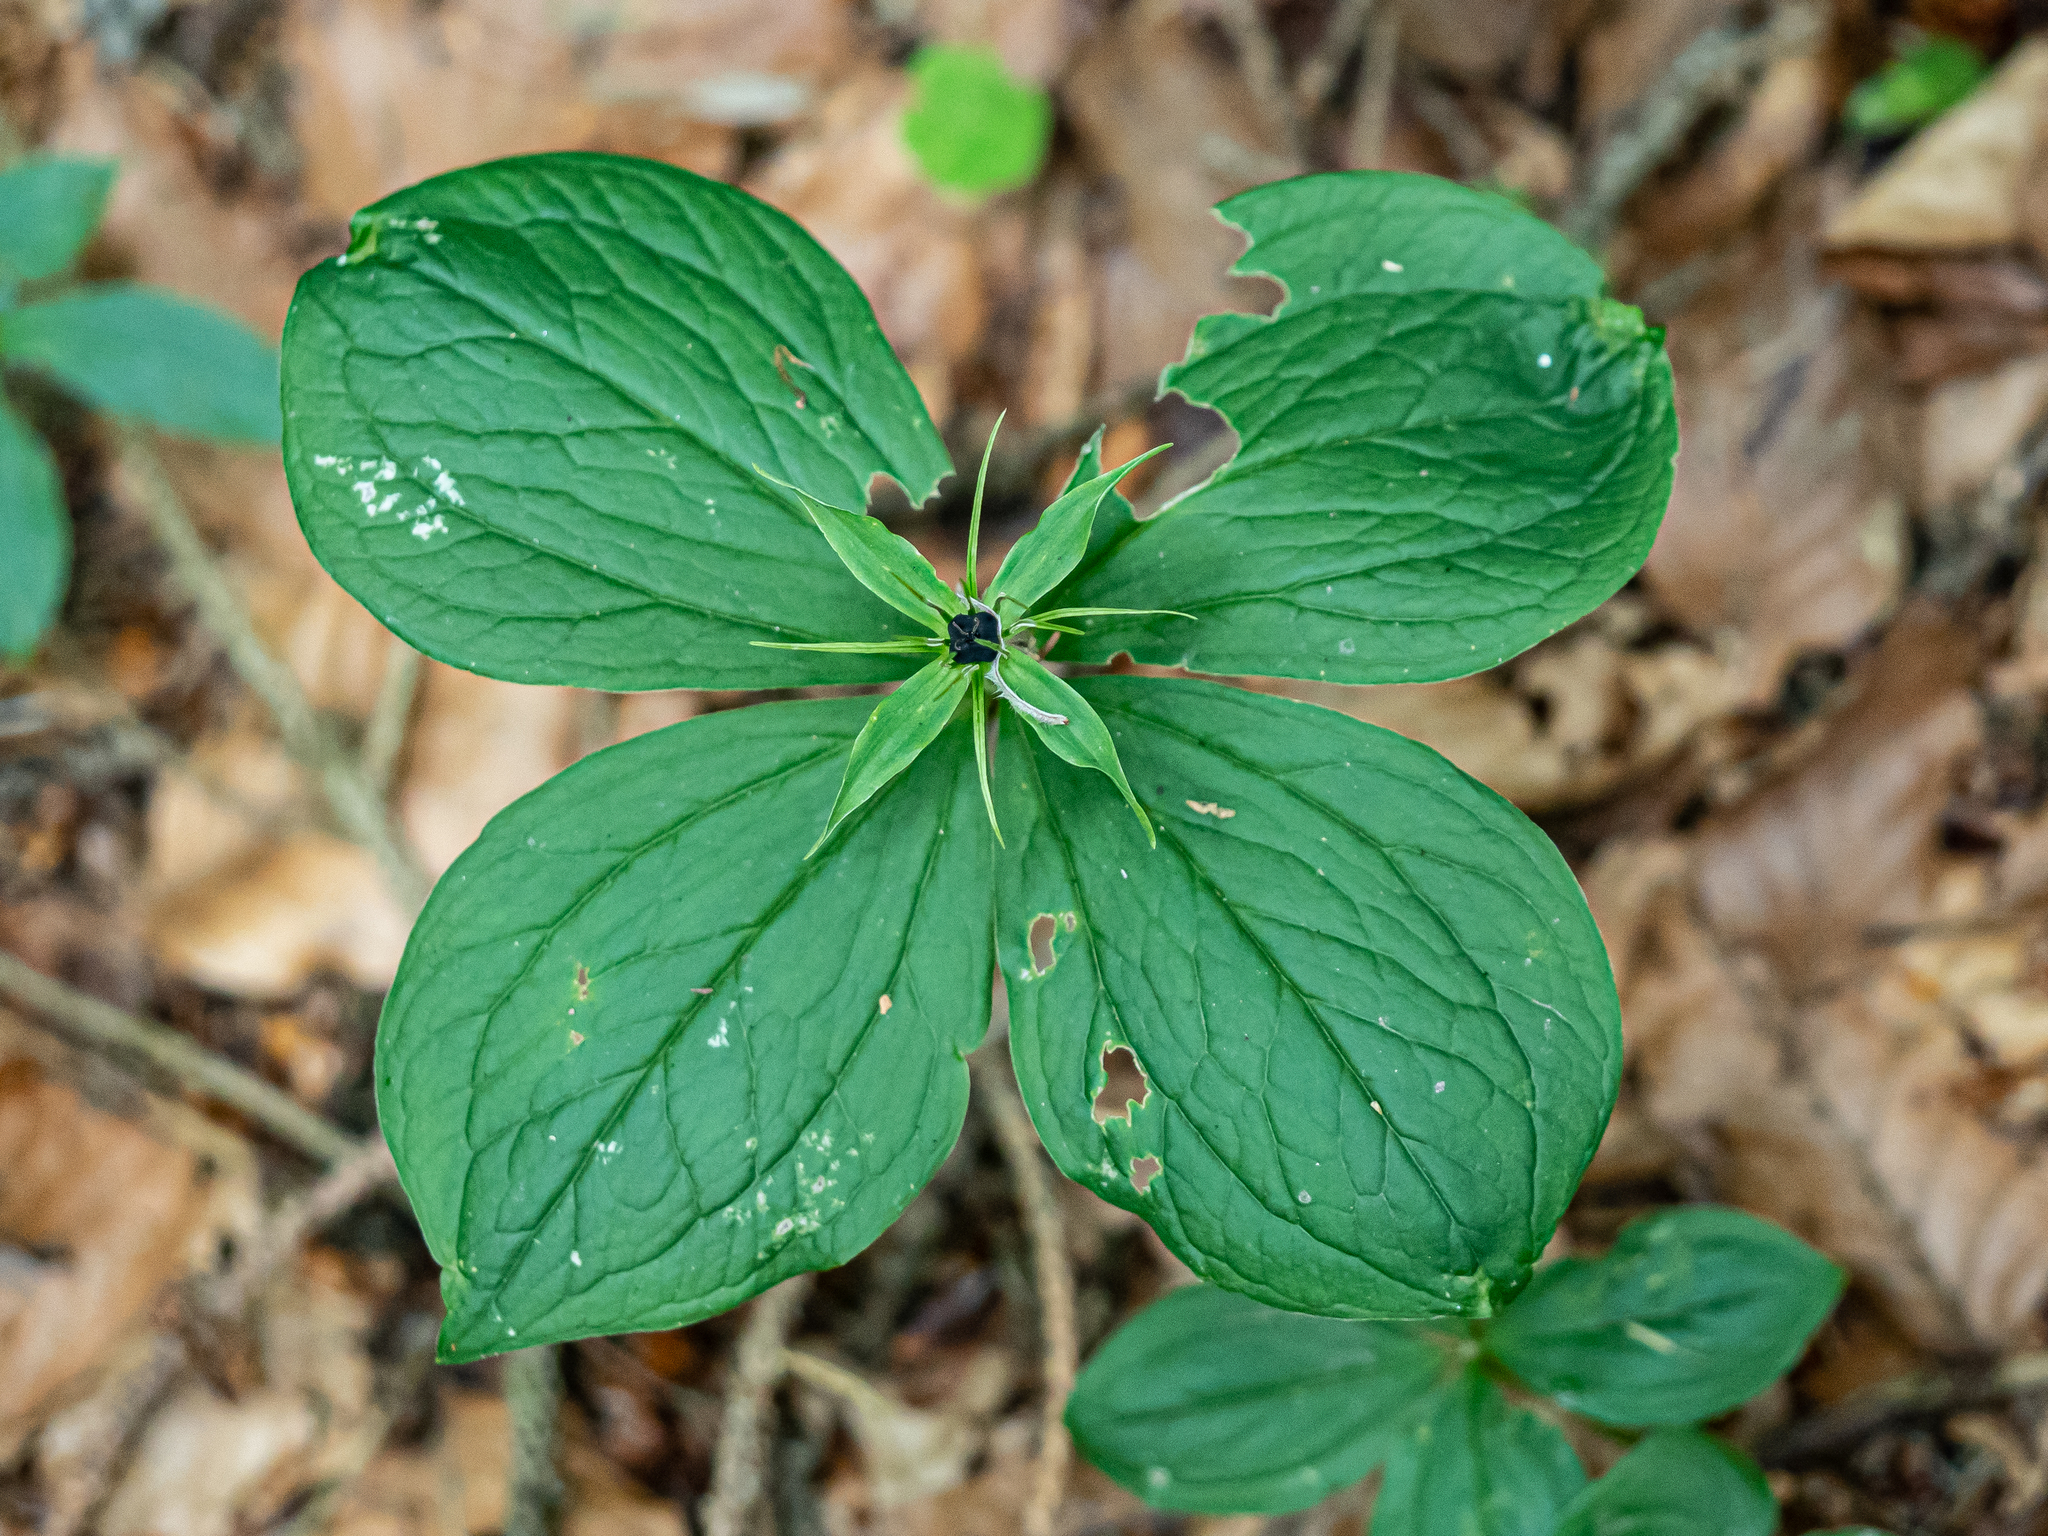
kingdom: Plantae
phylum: Tracheophyta
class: Liliopsida
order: Liliales
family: Melanthiaceae
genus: Paris
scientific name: Paris quadrifolia
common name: Herb-paris
